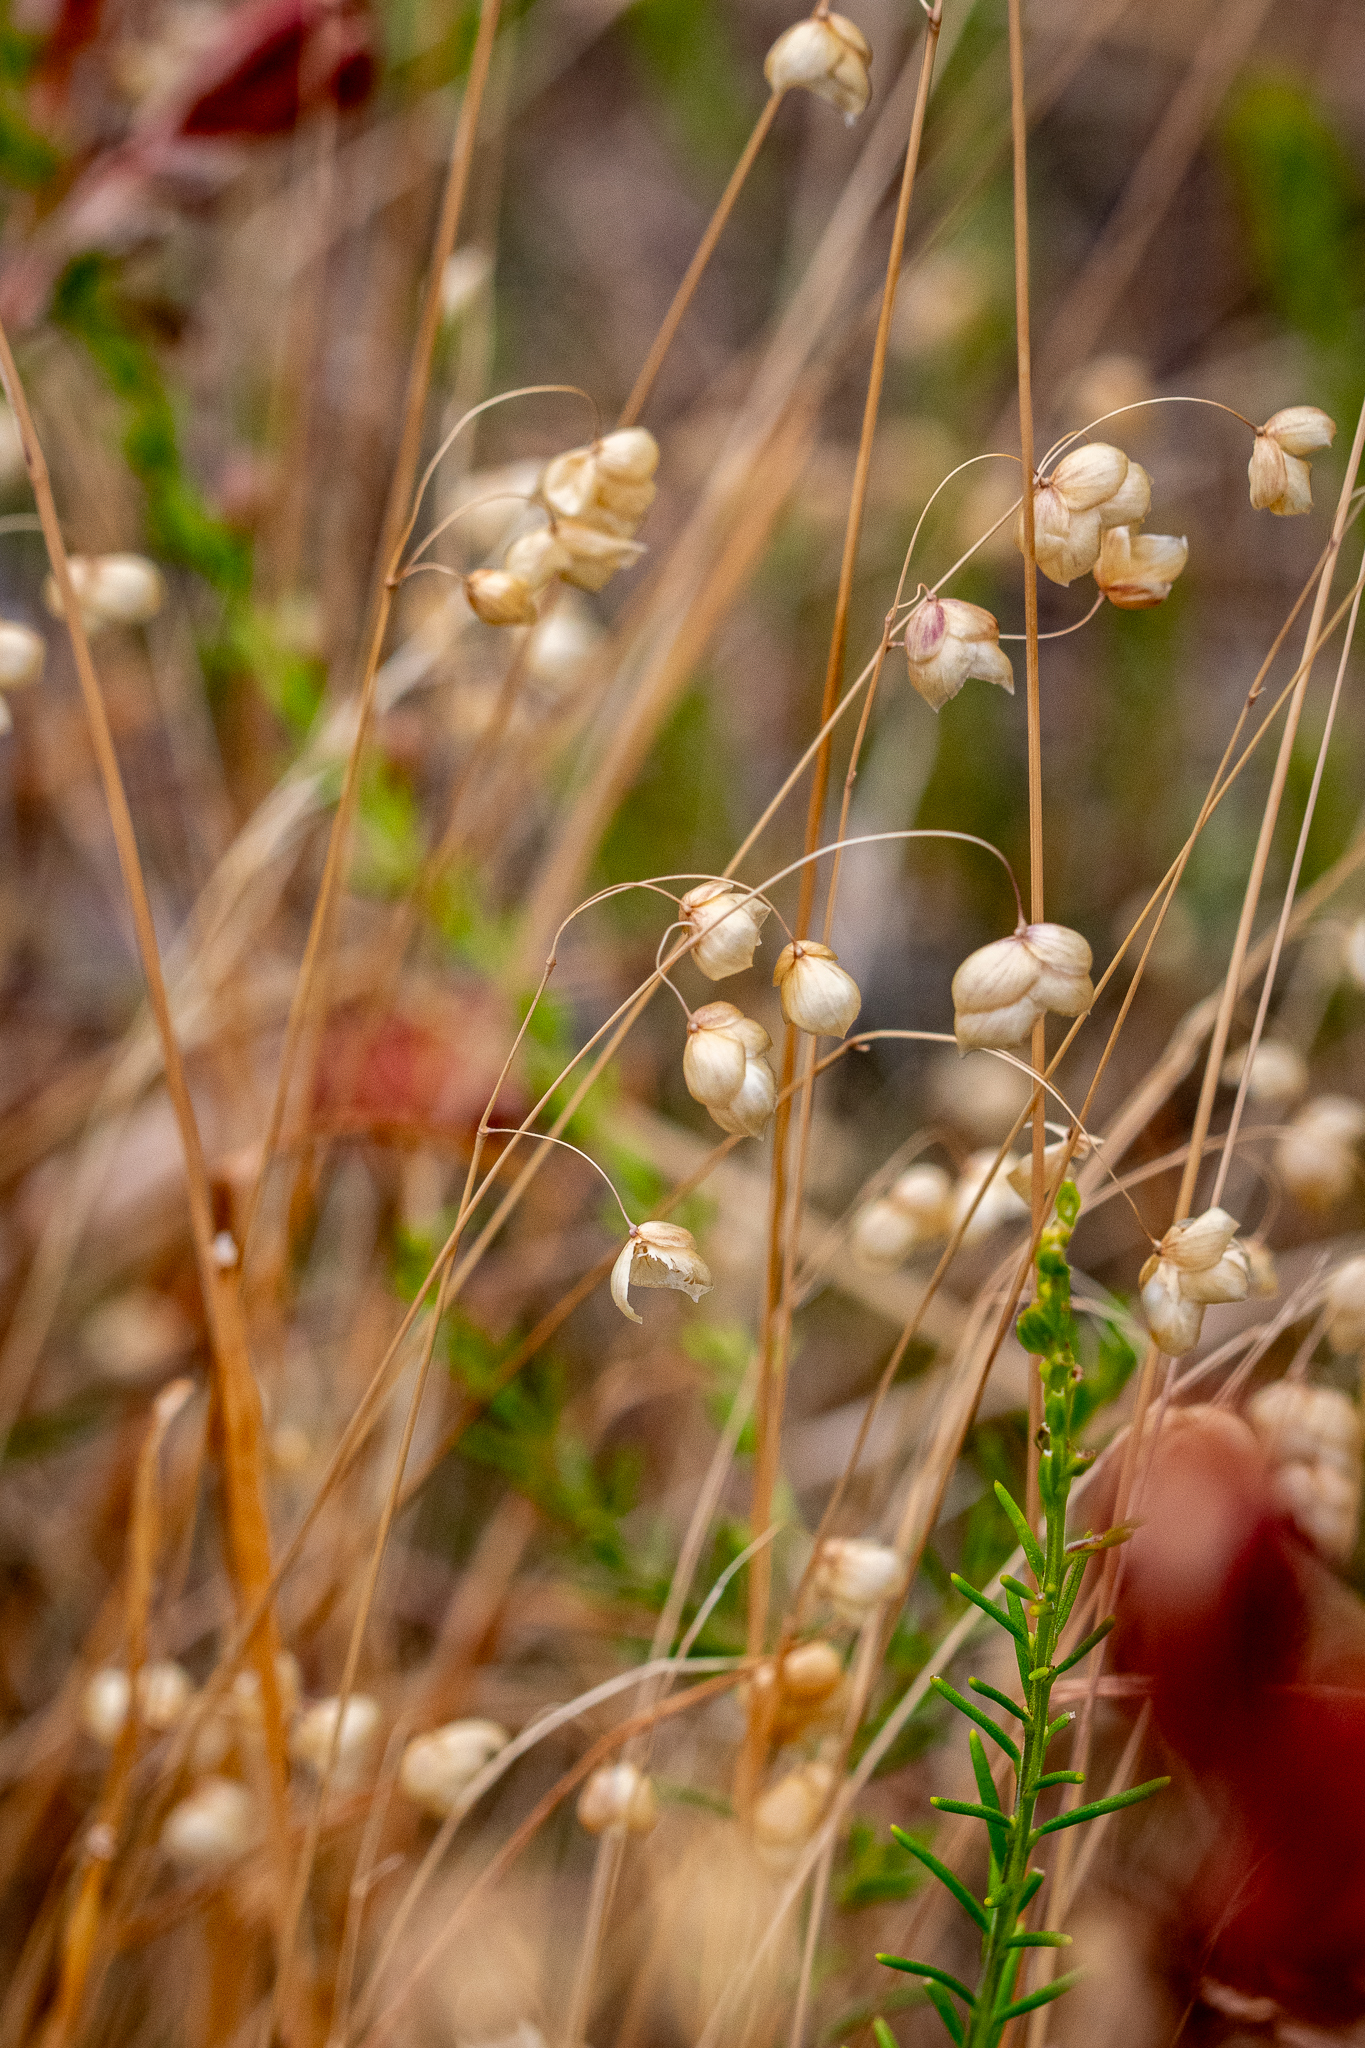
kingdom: Plantae
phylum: Tracheophyta
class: Liliopsida
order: Poales
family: Poaceae
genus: Briza
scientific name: Briza maxima
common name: Big quakinggrass
